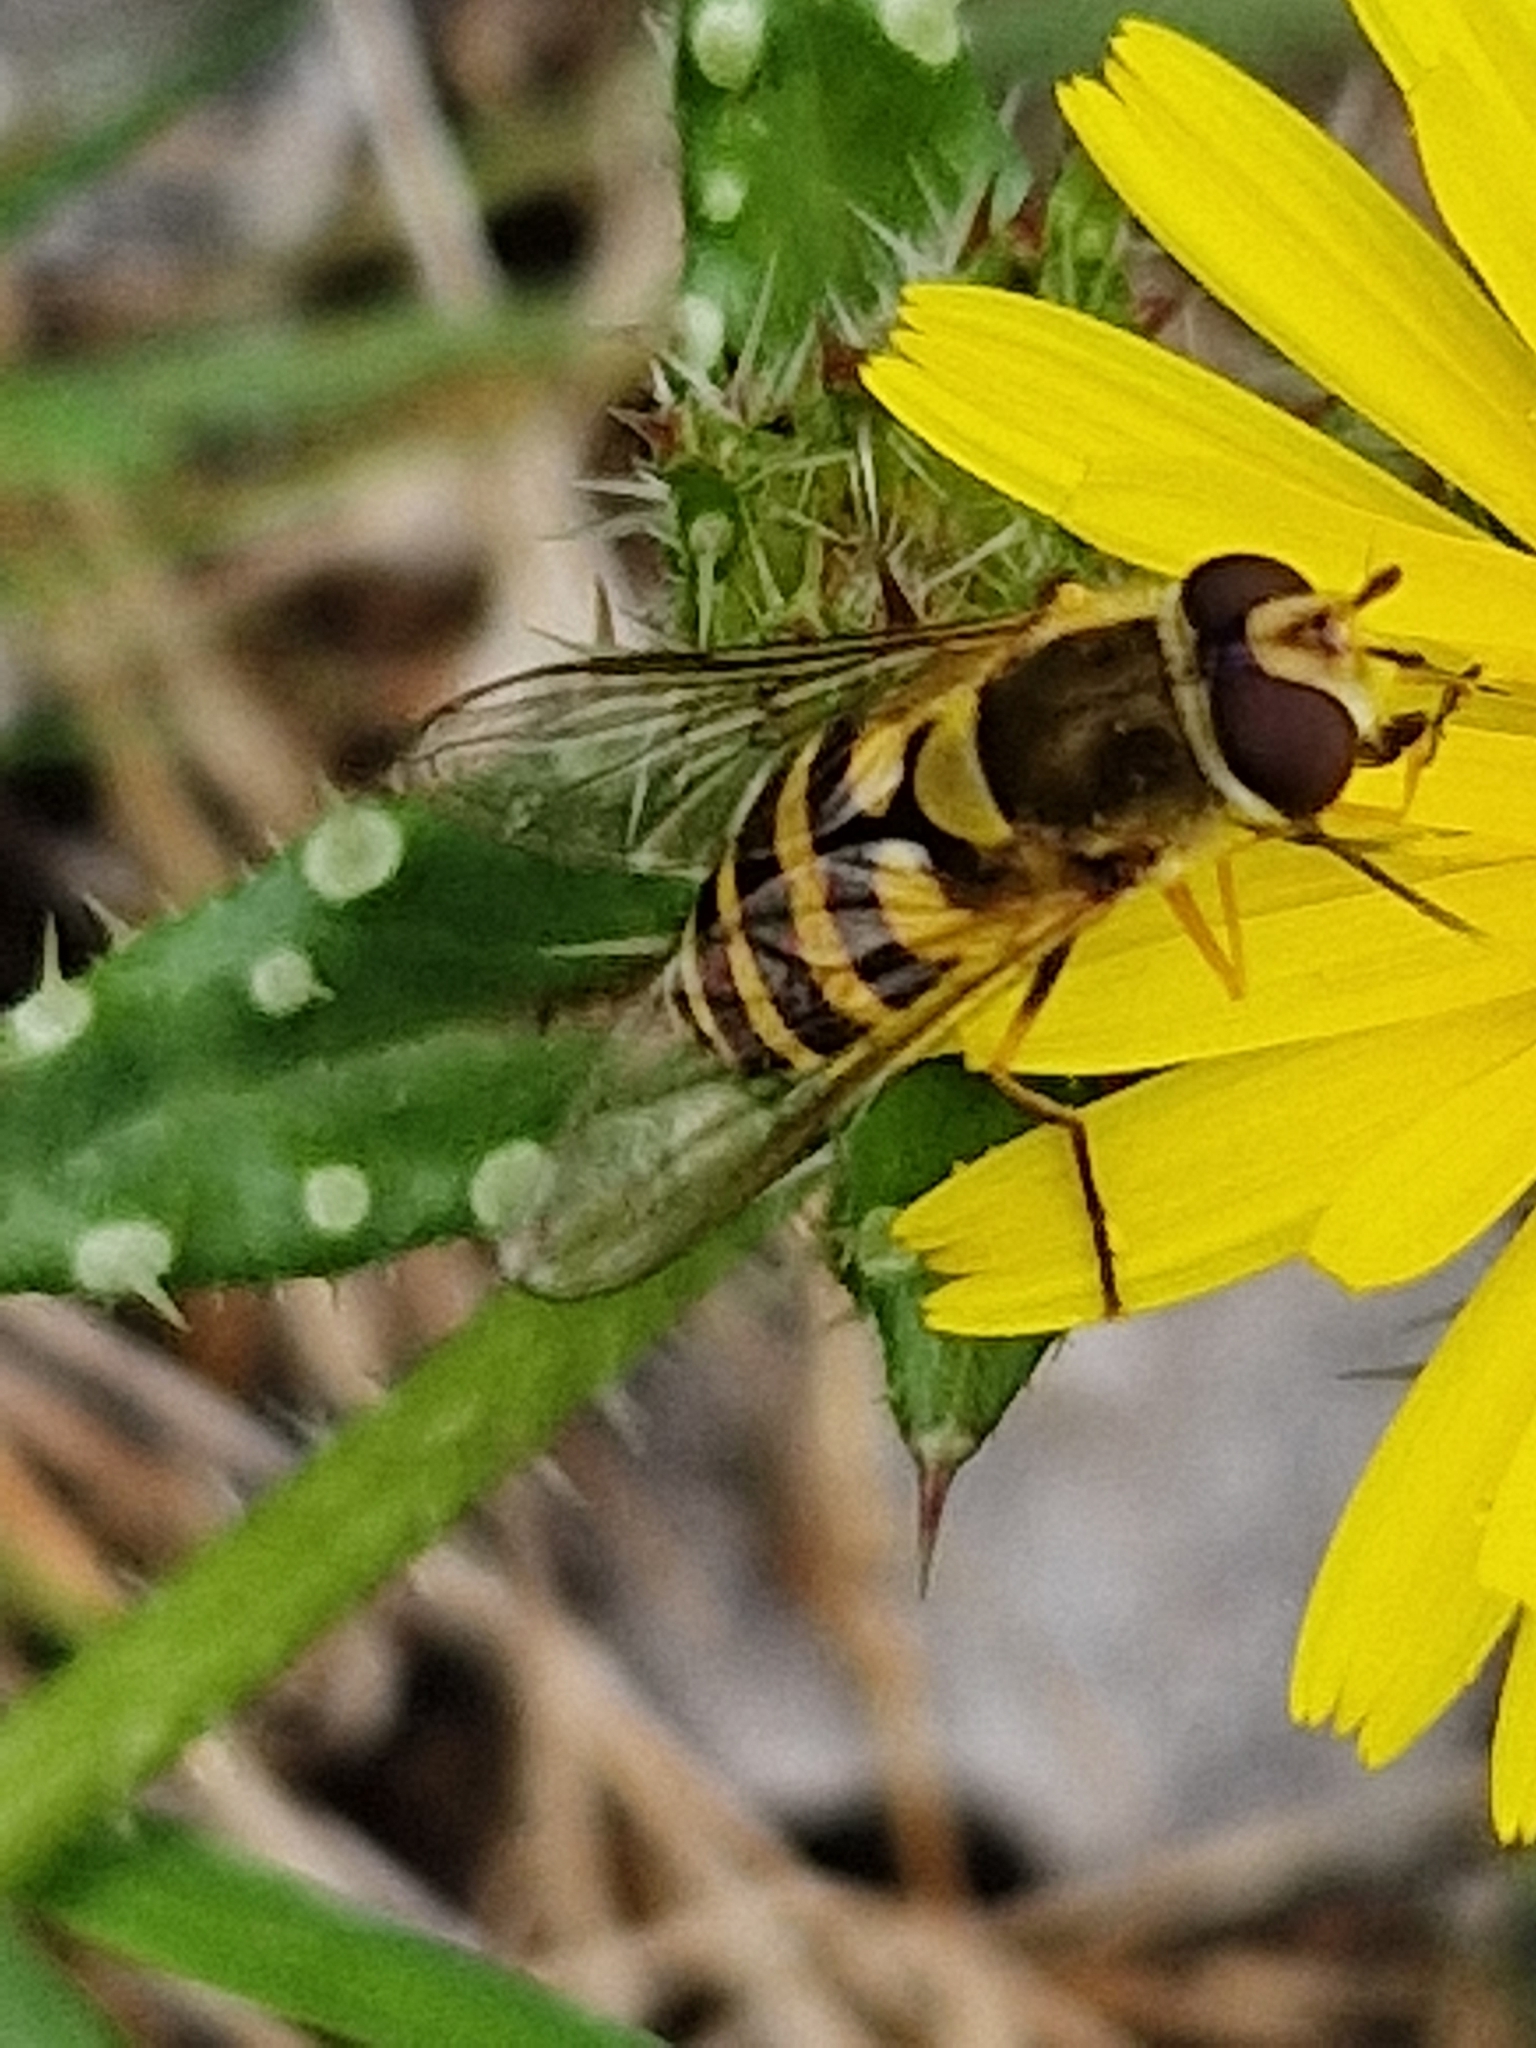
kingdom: Animalia
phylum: Arthropoda
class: Insecta
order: Diptera
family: Syrphidae
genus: Syrphus
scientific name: Syrphus
